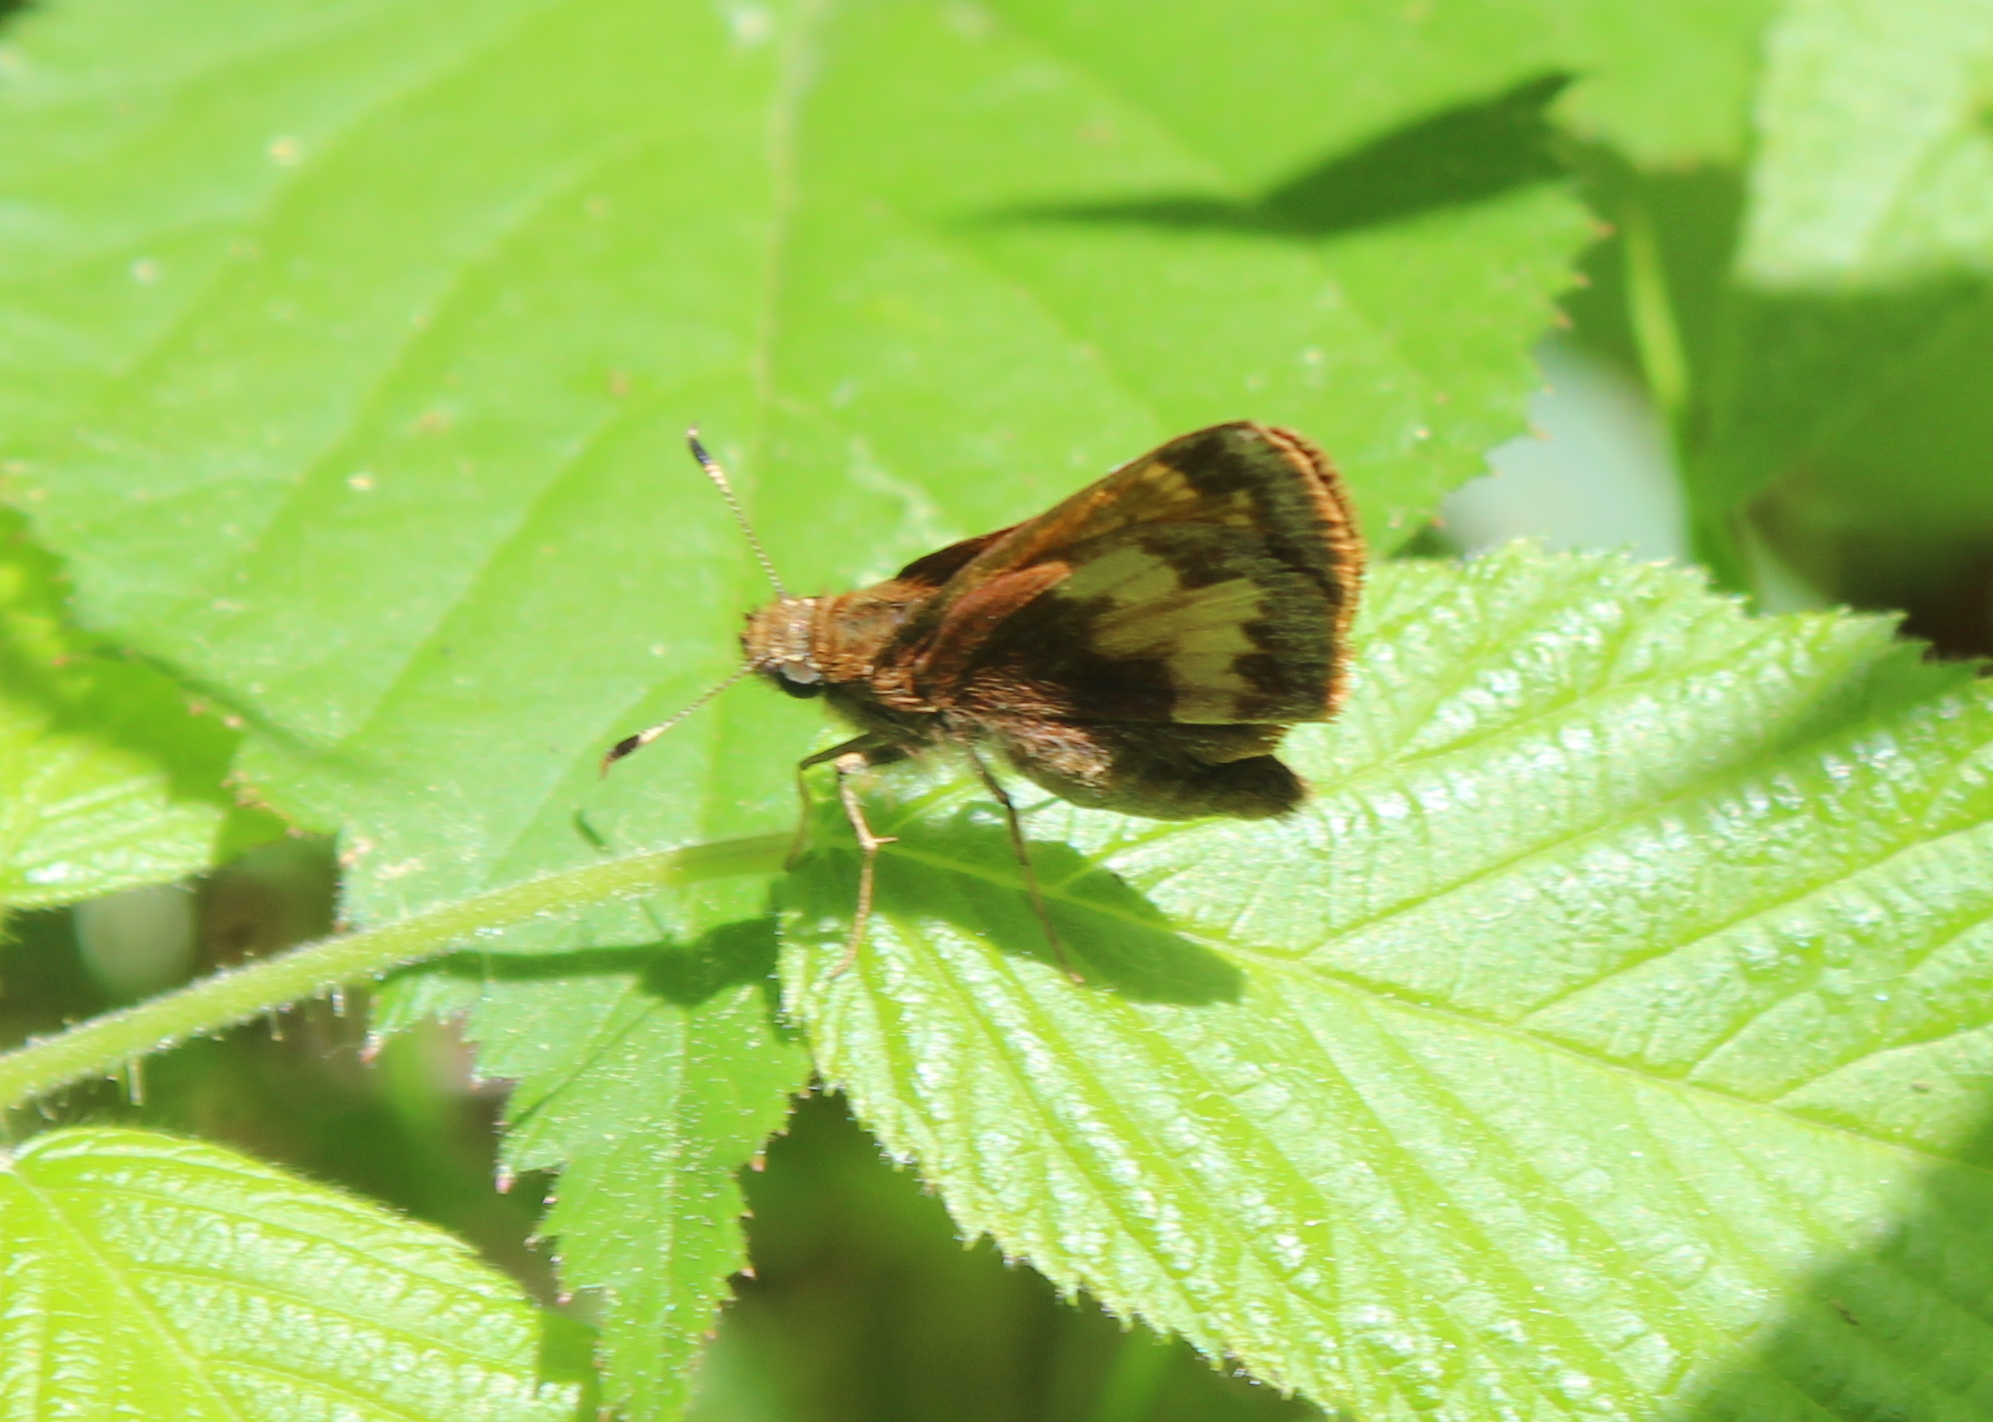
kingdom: Animalia
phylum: Arthropoda
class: Insecta
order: Lepidoptera
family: Hesperiidae
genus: Lon
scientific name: Lon hobomok
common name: Hobomok skipper
